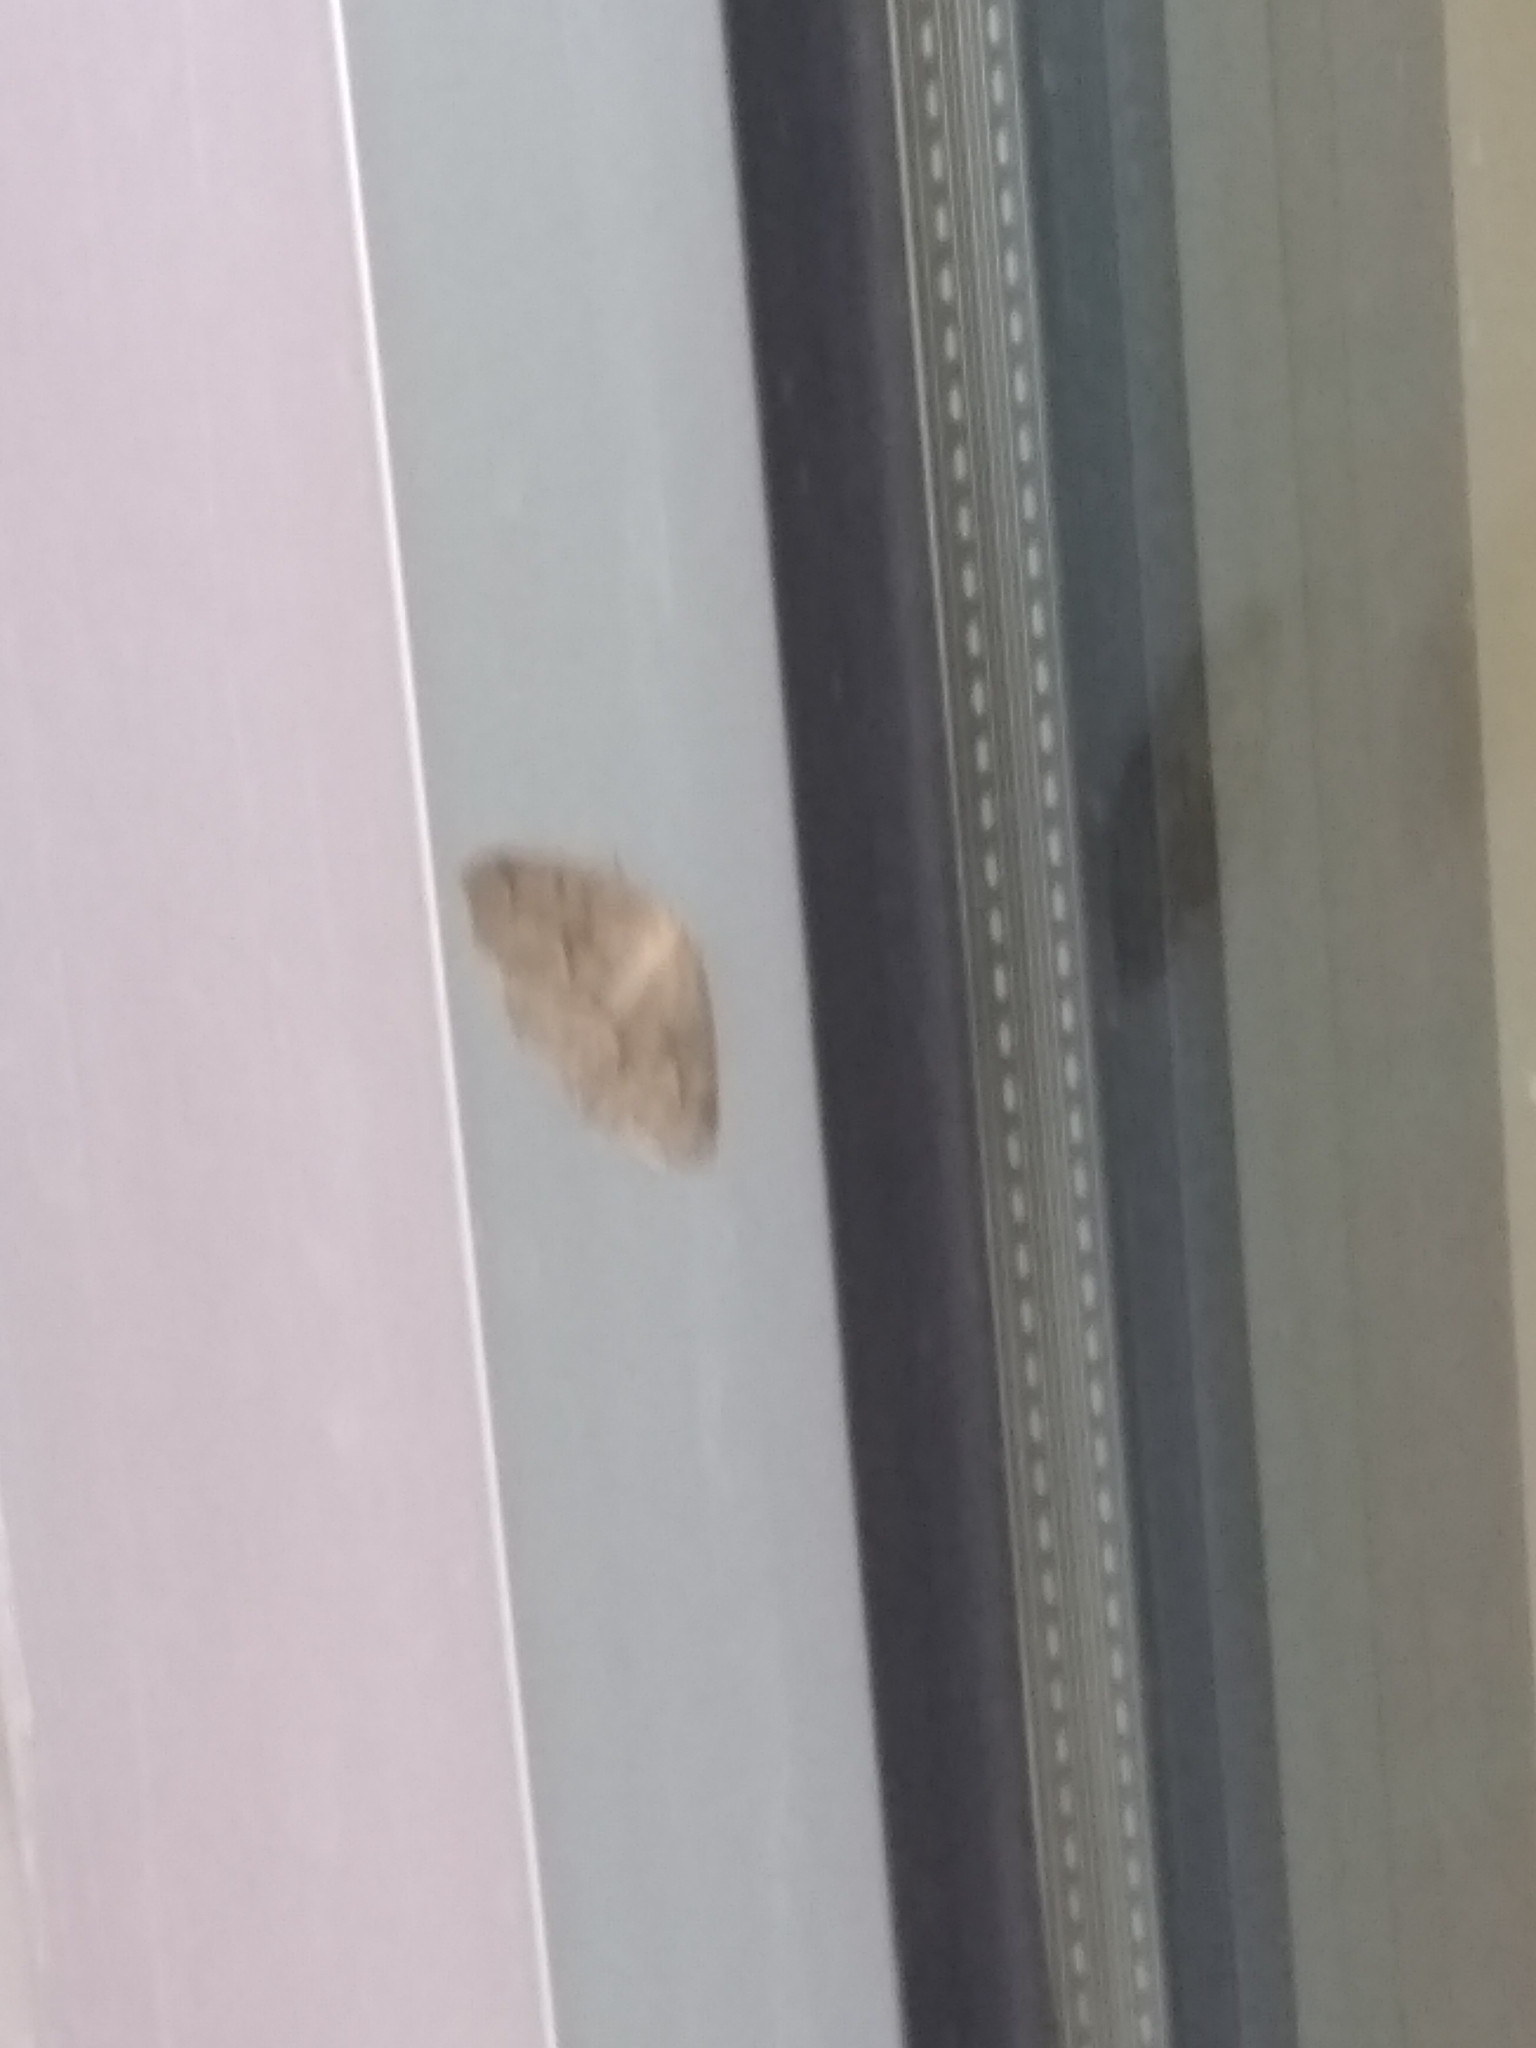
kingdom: Animalia
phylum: Arthropoda
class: Insecta
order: Lepidoptera
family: Geometridae
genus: Lambdina
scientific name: Lambdina fiscellaria
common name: Hemlock looper
